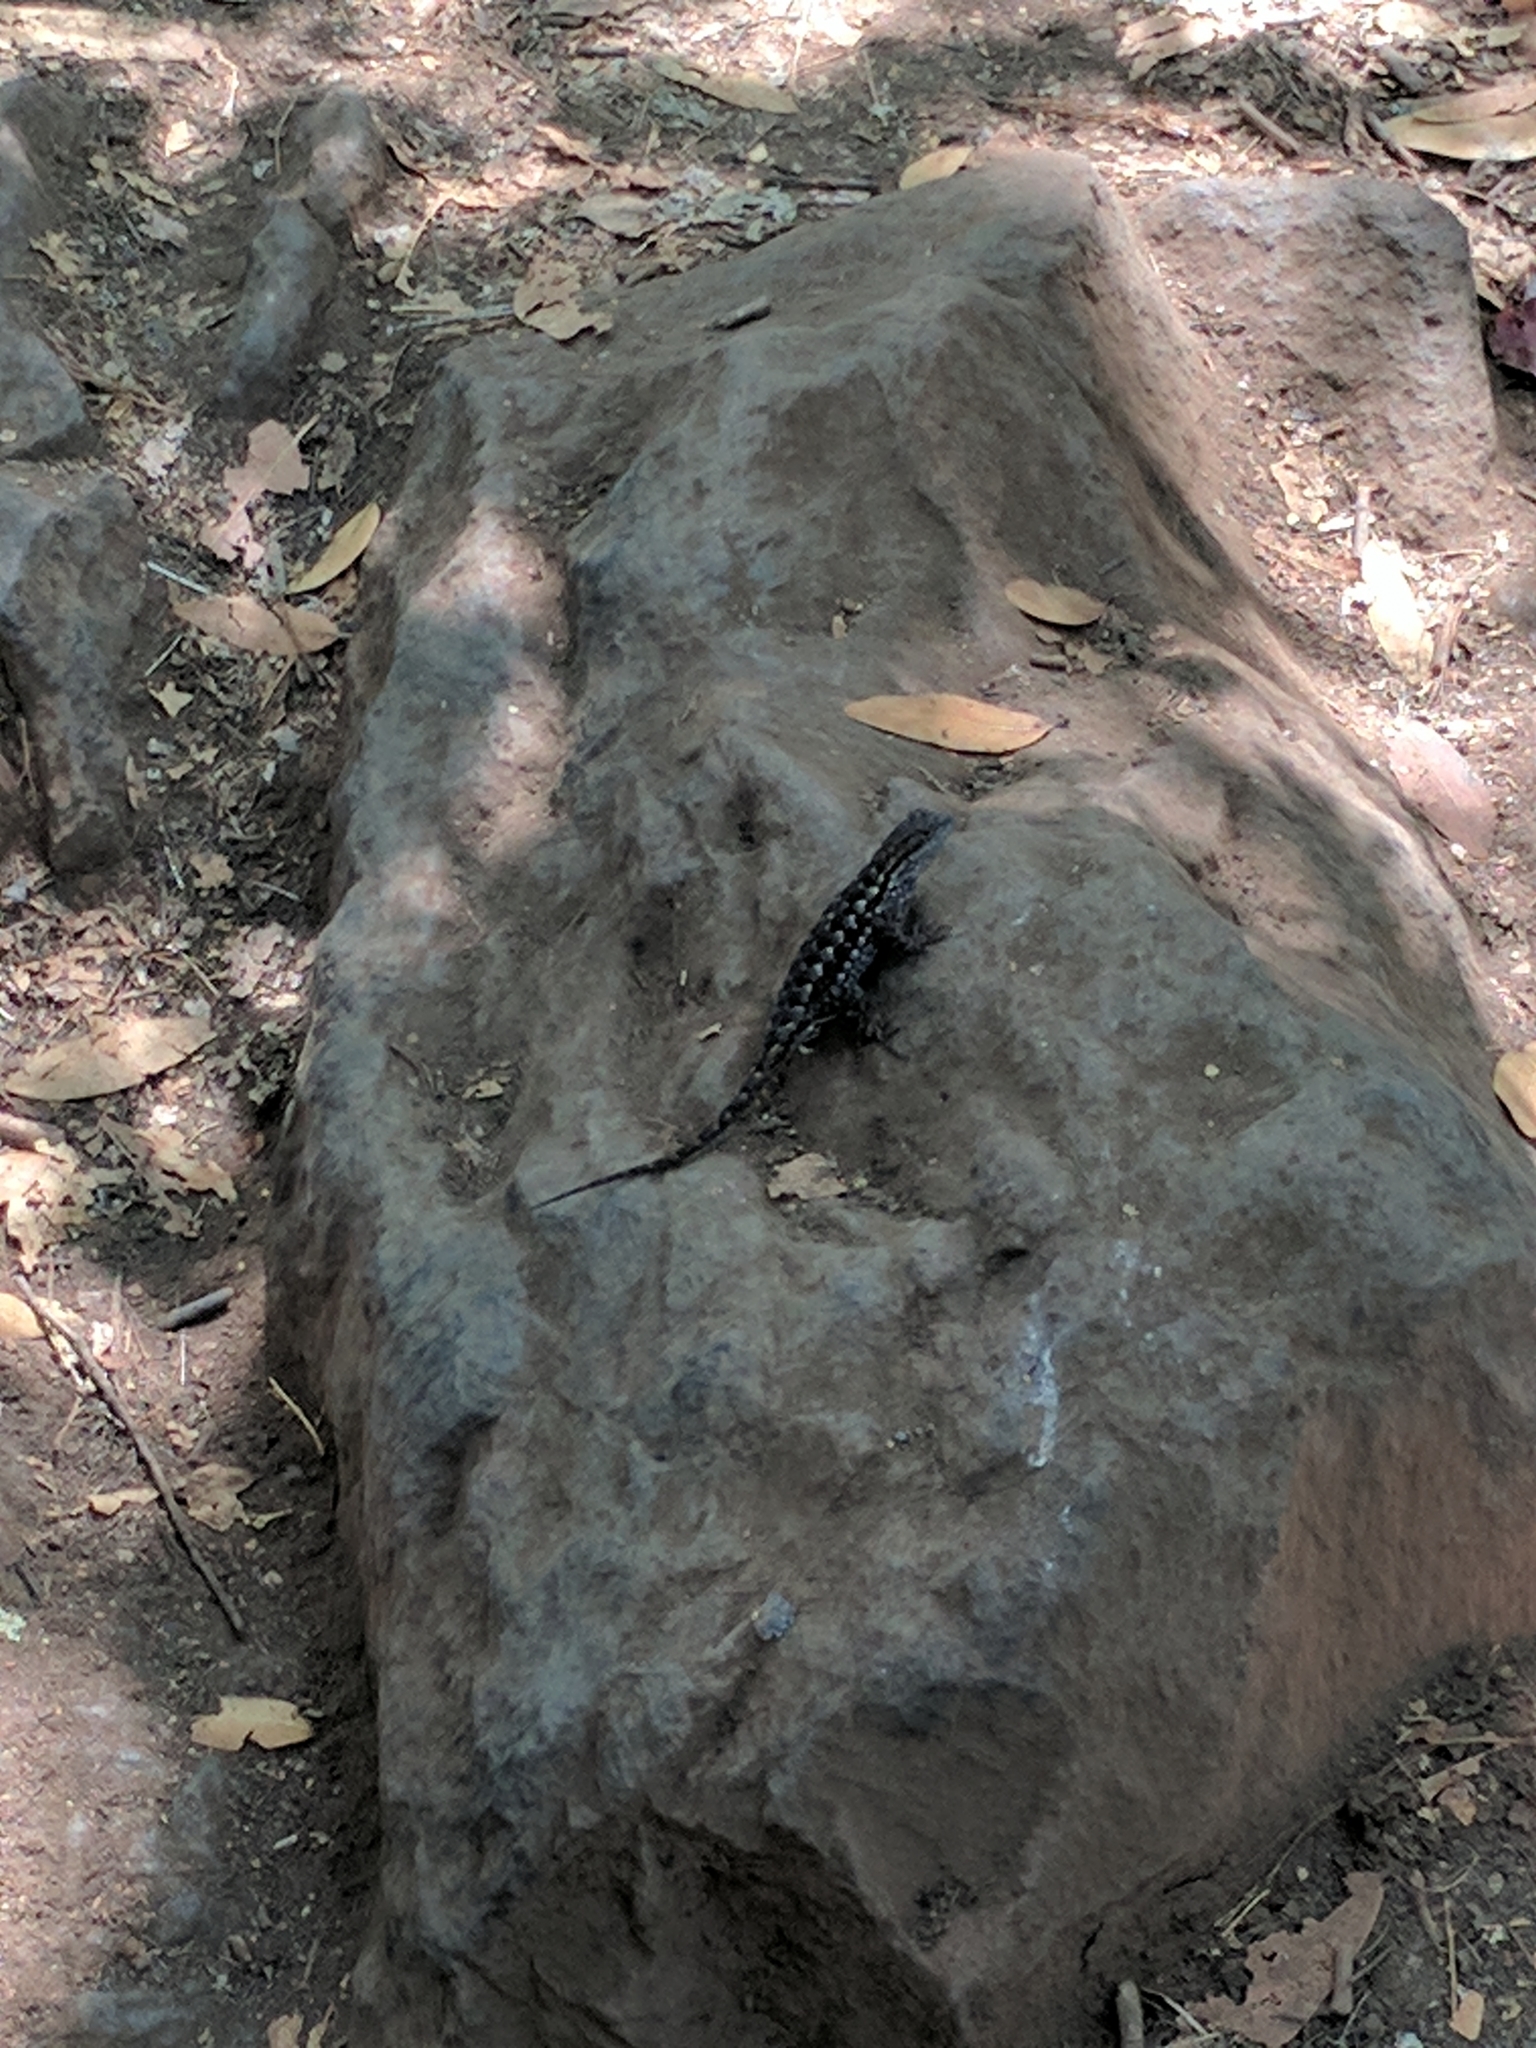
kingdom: Animalia
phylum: Chordata
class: Squamata
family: Phrynosomatidae
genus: Sceloporus
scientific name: Sceloporus occidentalis
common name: Western fence lizard
